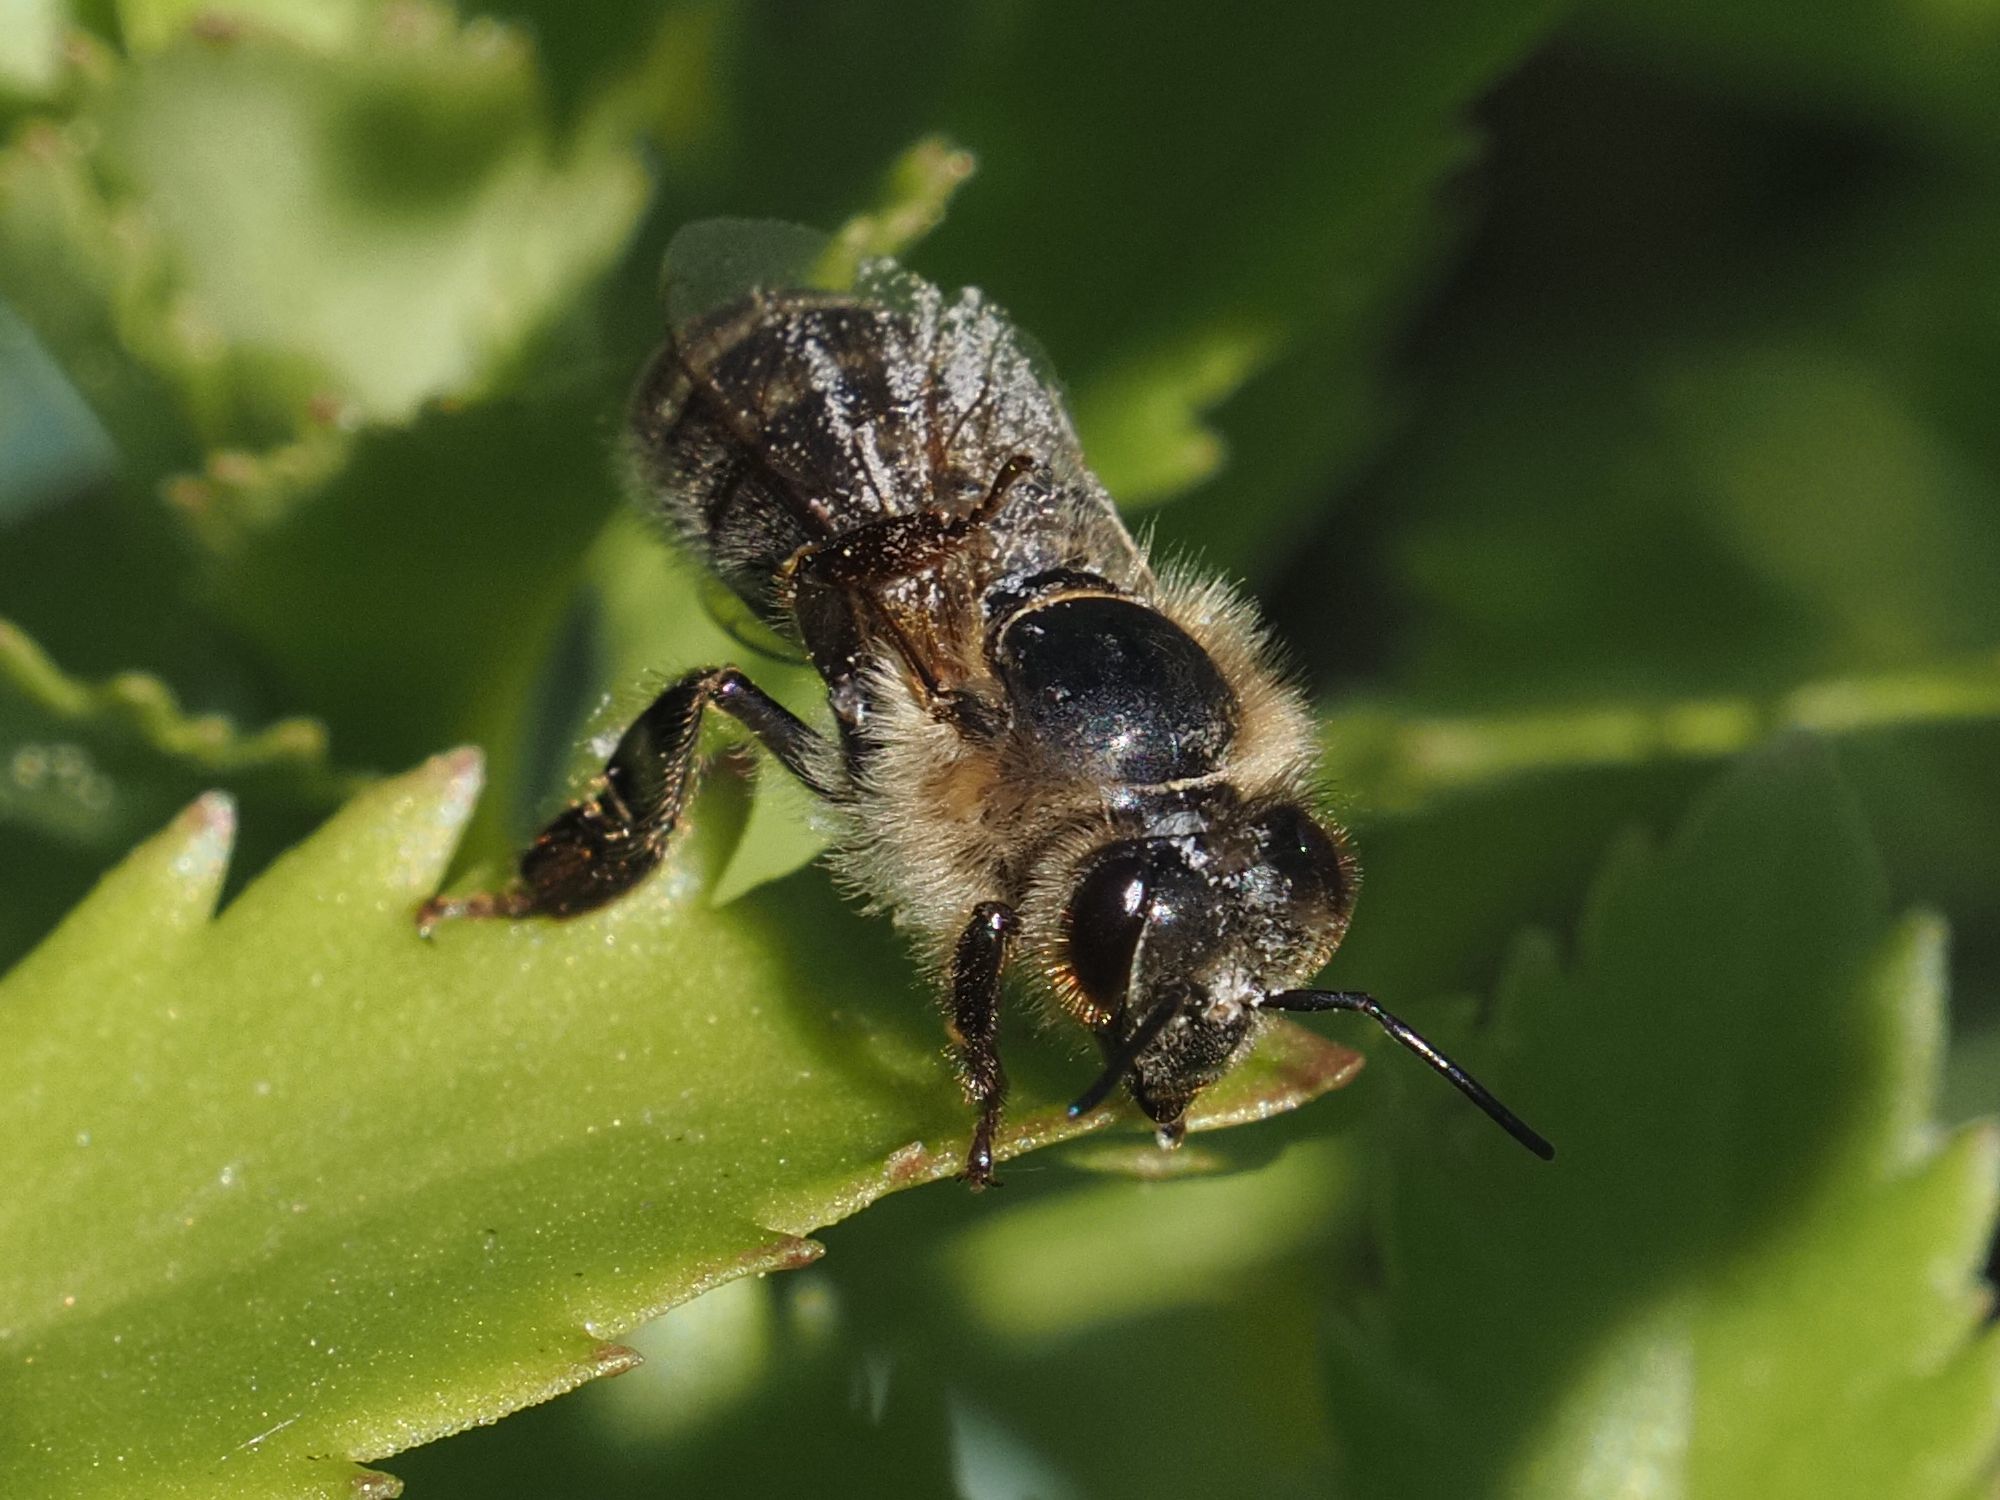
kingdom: Animalia
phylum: Arthropoda
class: Insecta
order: Hymenoptera
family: Apidae
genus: Apis
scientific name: Apis mellifera
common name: Honey bee
